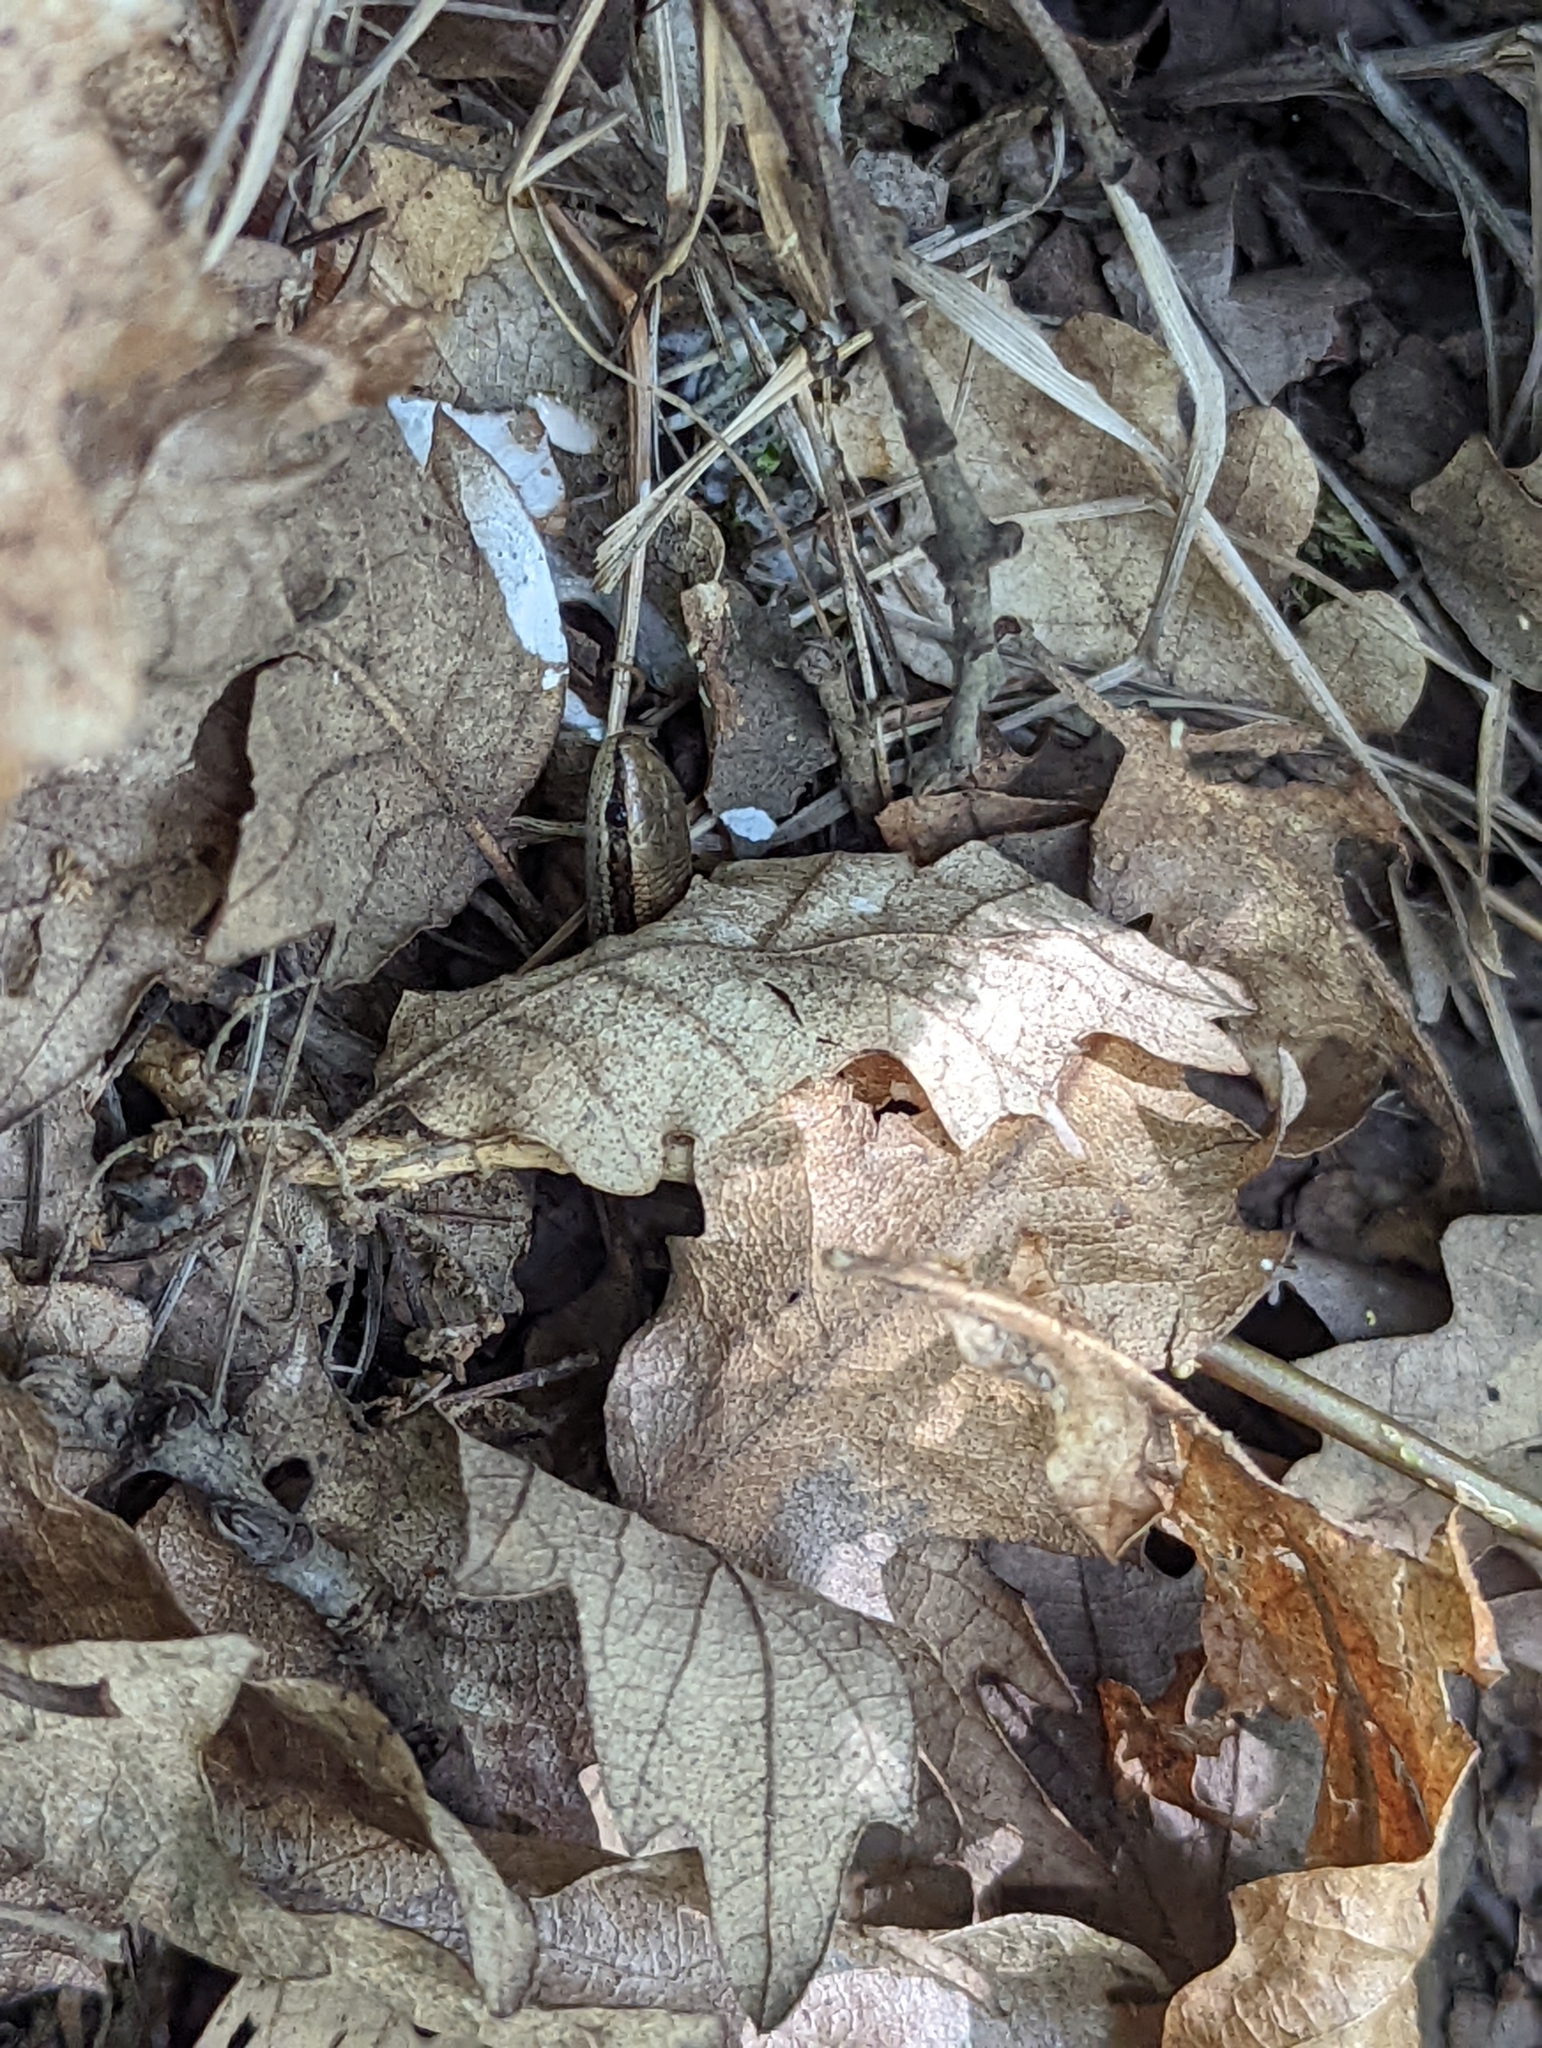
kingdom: Animalia
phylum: Chordata
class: Squamata
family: Scincidae
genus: Ablepharus
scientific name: Ablepharus kitaibelii
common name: Juniper skink
